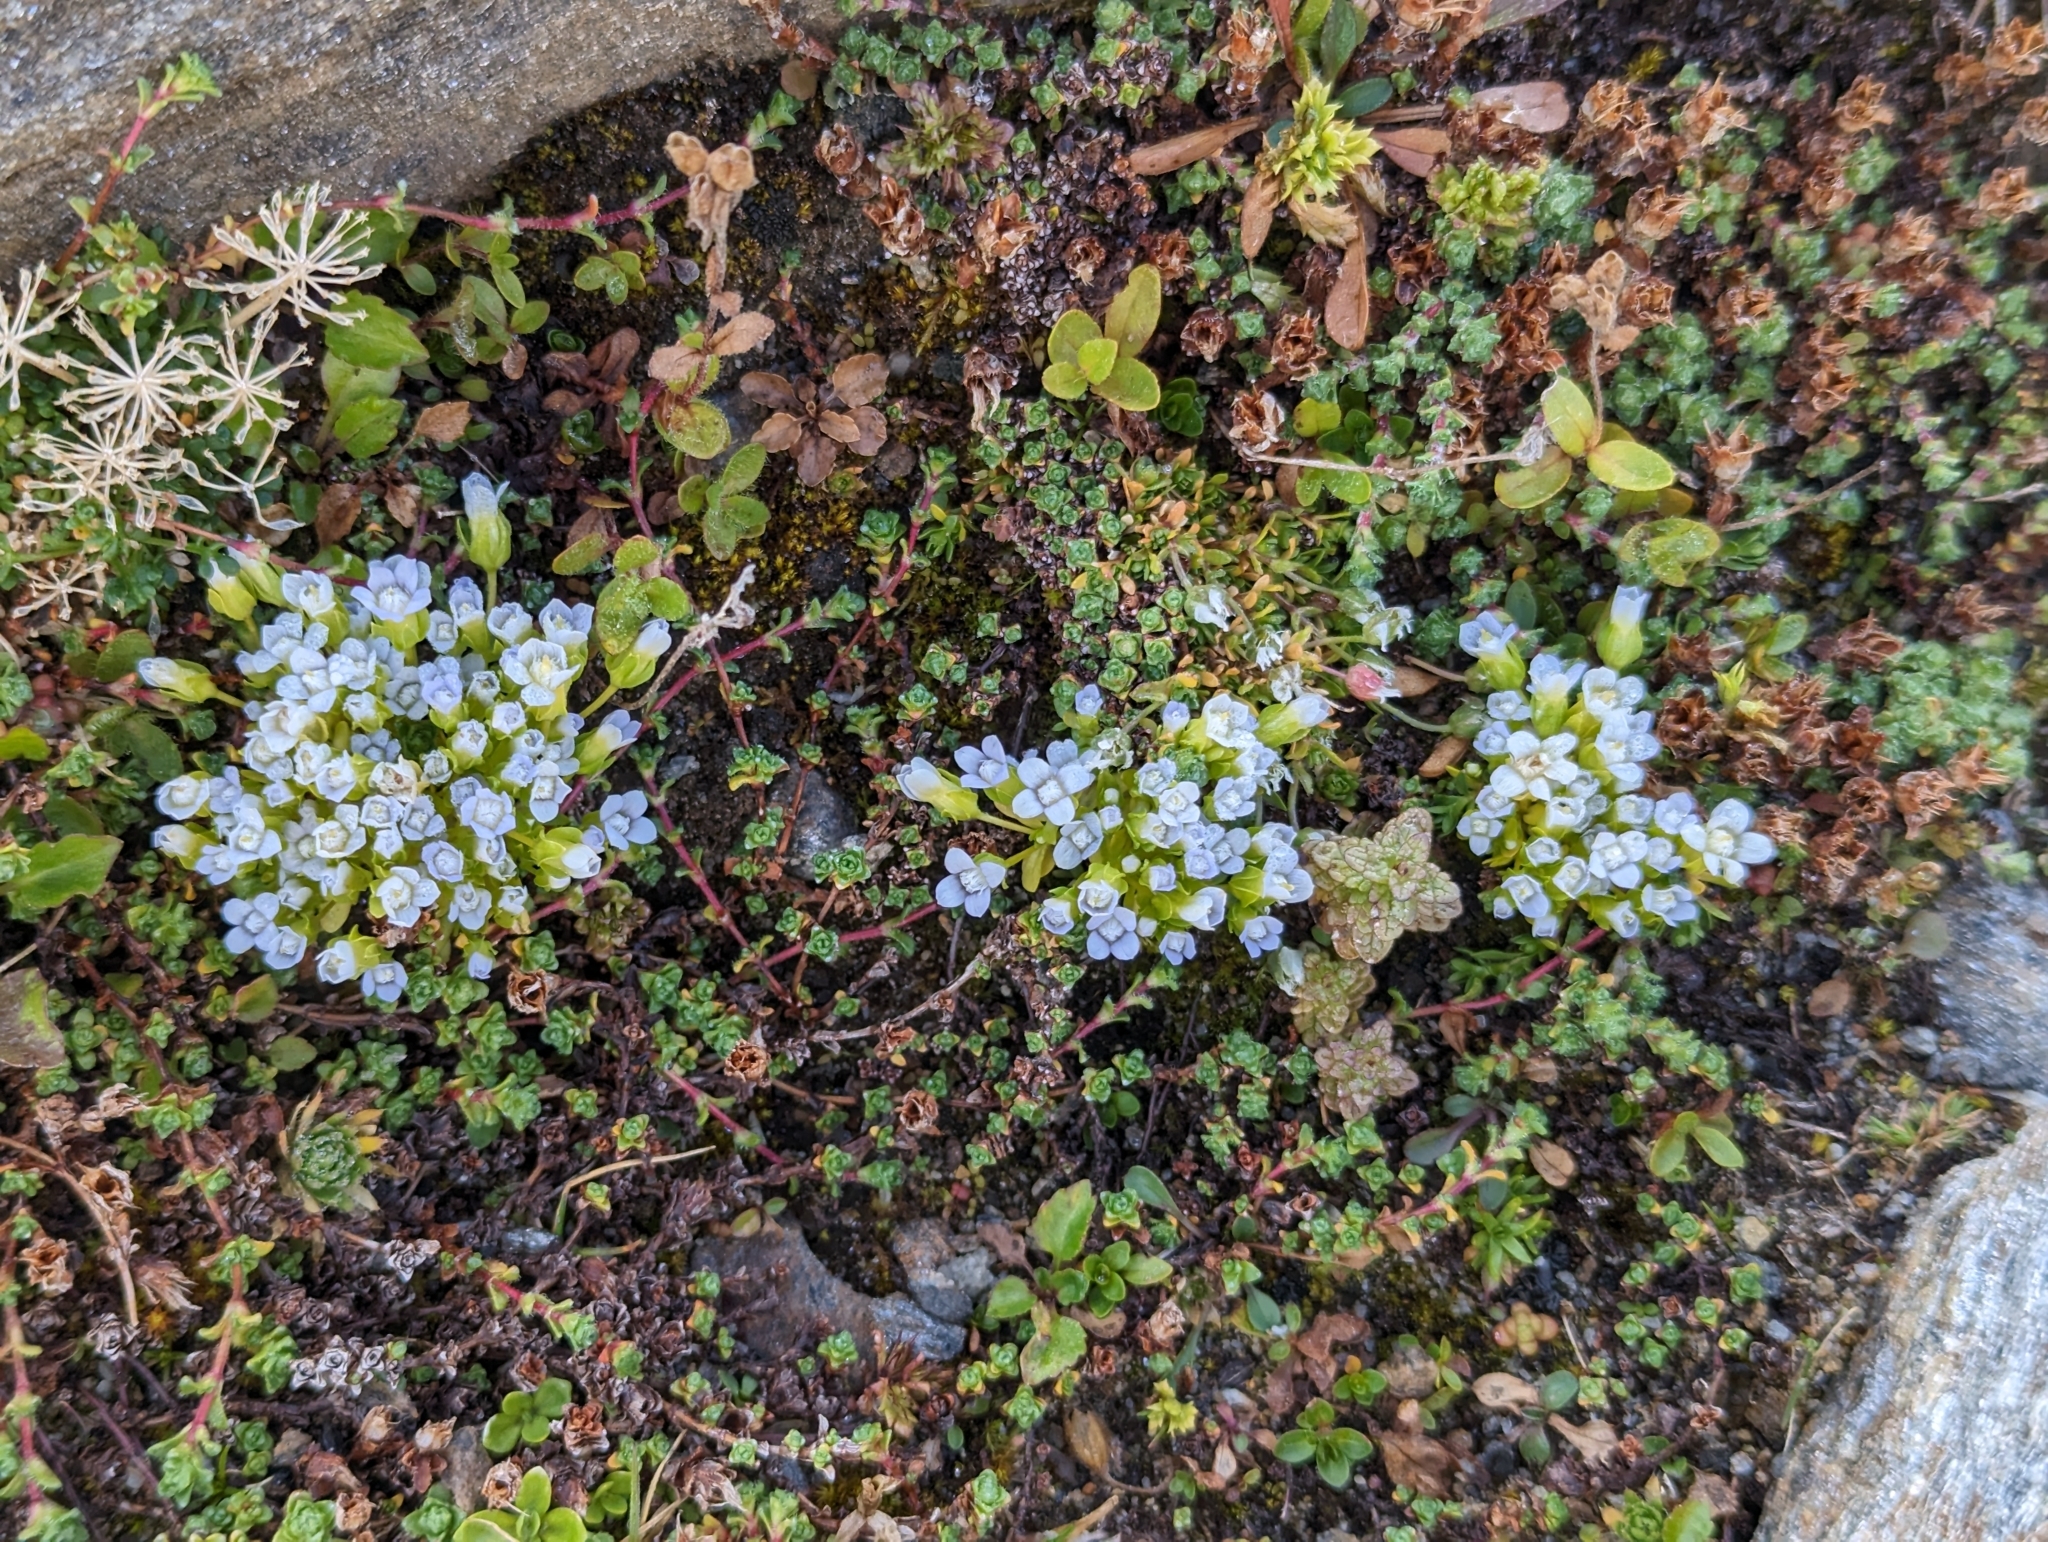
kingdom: Plantae
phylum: Tracheophyta
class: Magnoliopsida
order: Gentianales
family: Gentianaceae
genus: Comastoma
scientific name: Comastoma nanum
